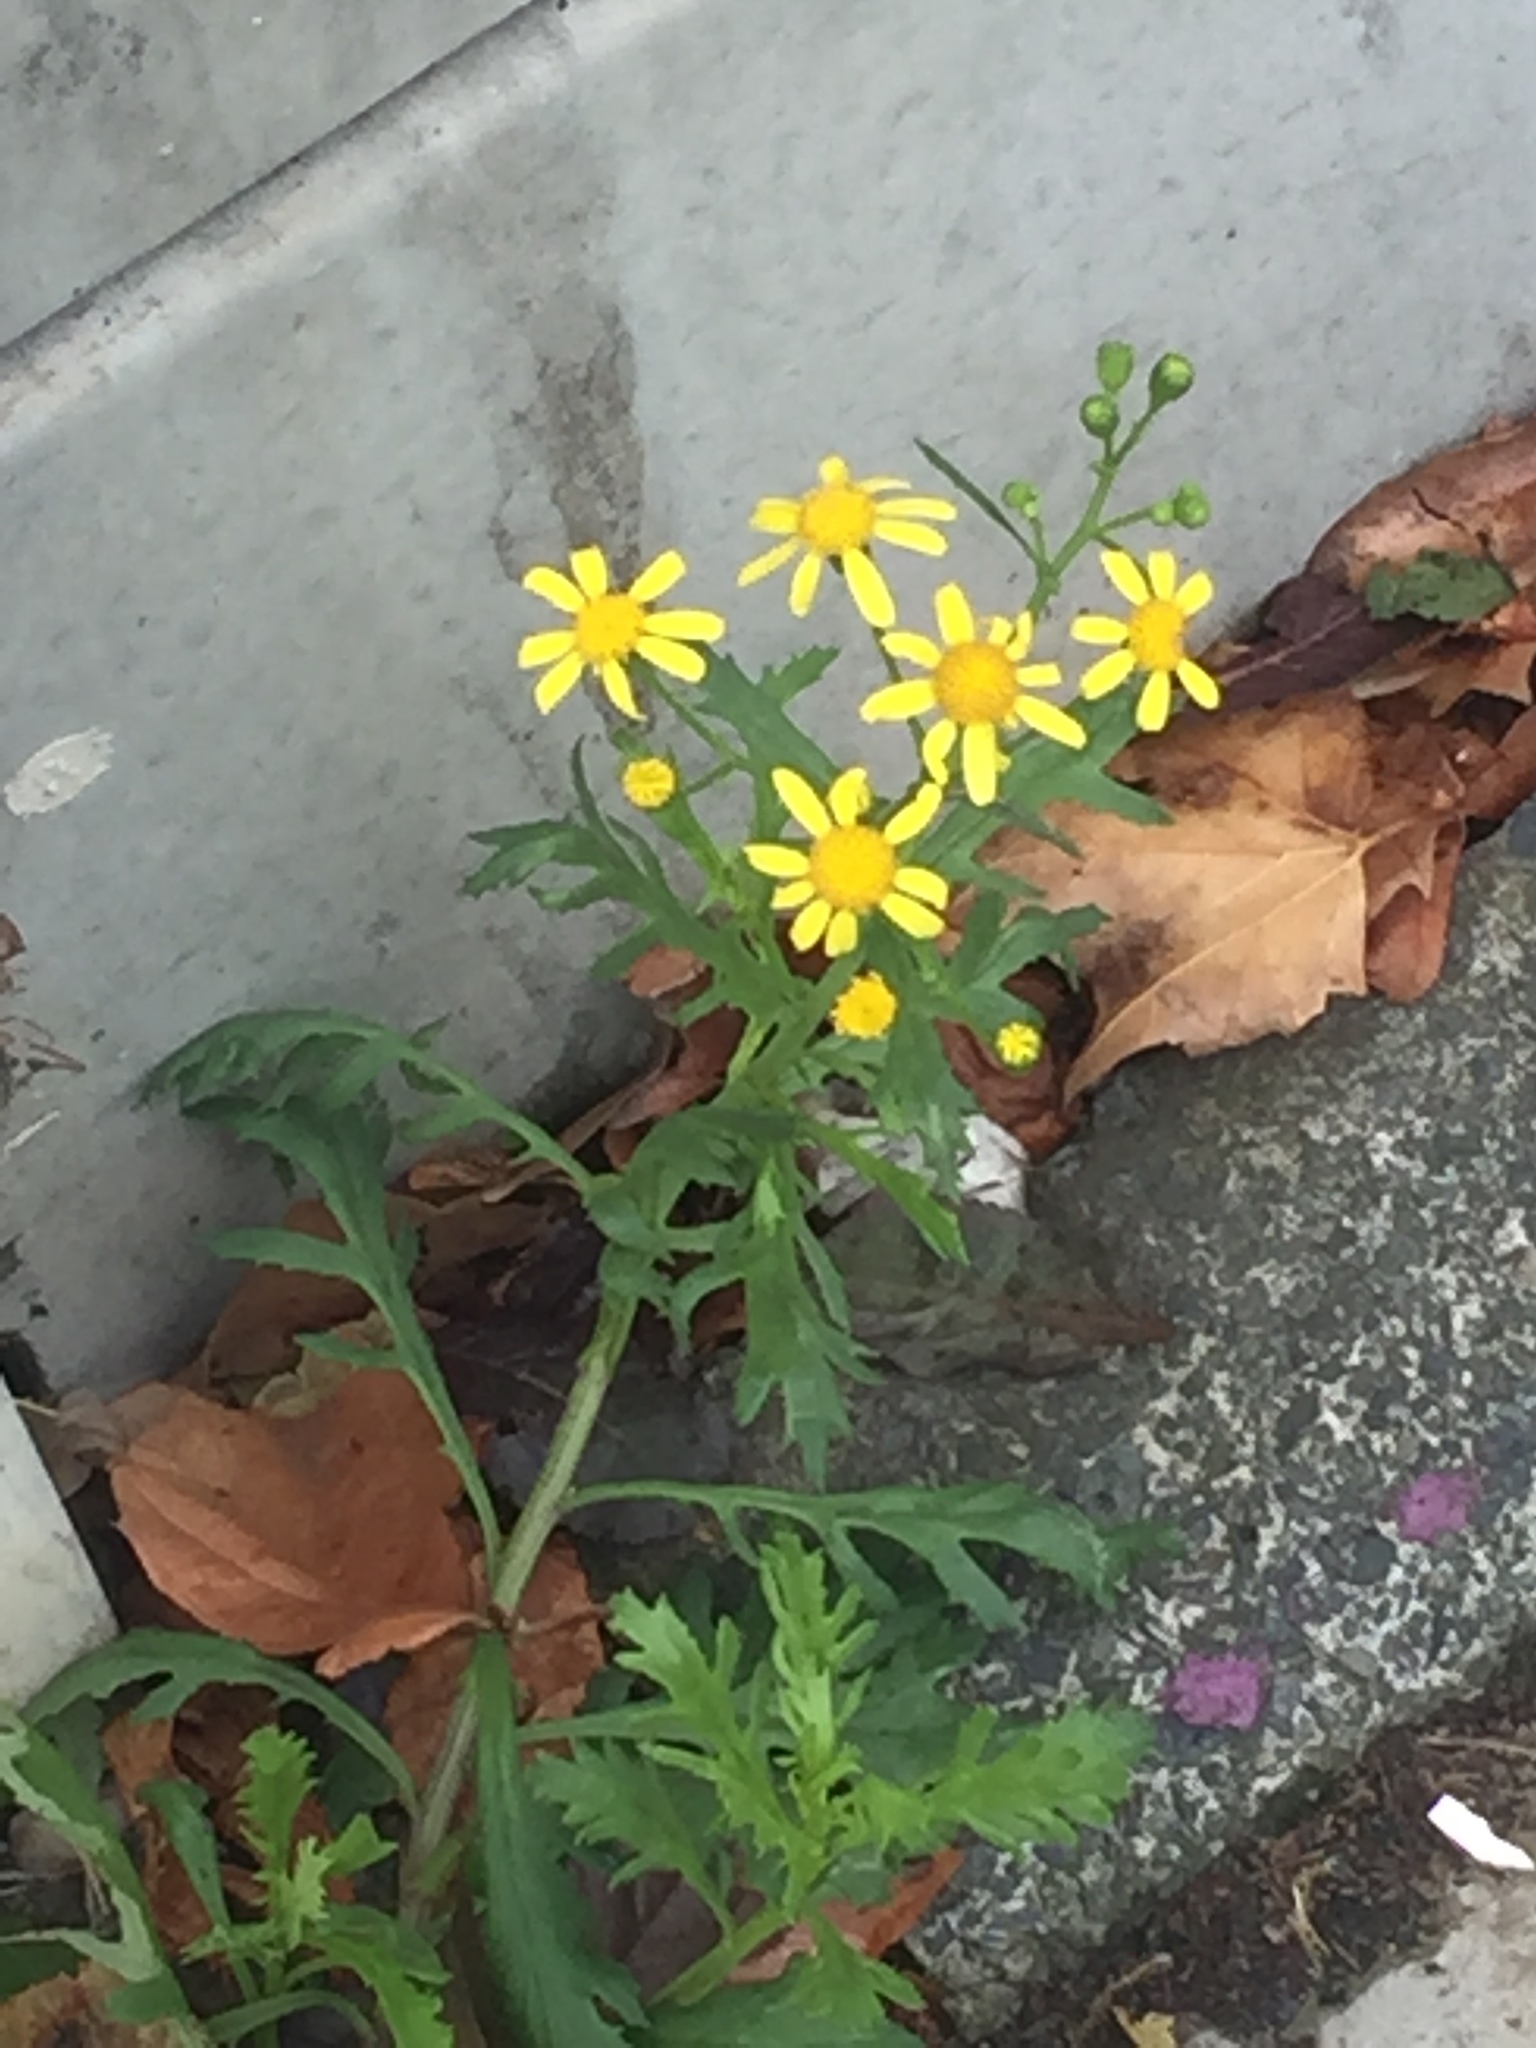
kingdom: Plantae
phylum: Tracheophyta
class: Magnoliopsida
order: Asterales
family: Asteraceae
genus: Senecio
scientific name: Senecio squalidus
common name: Oxford ragwort
